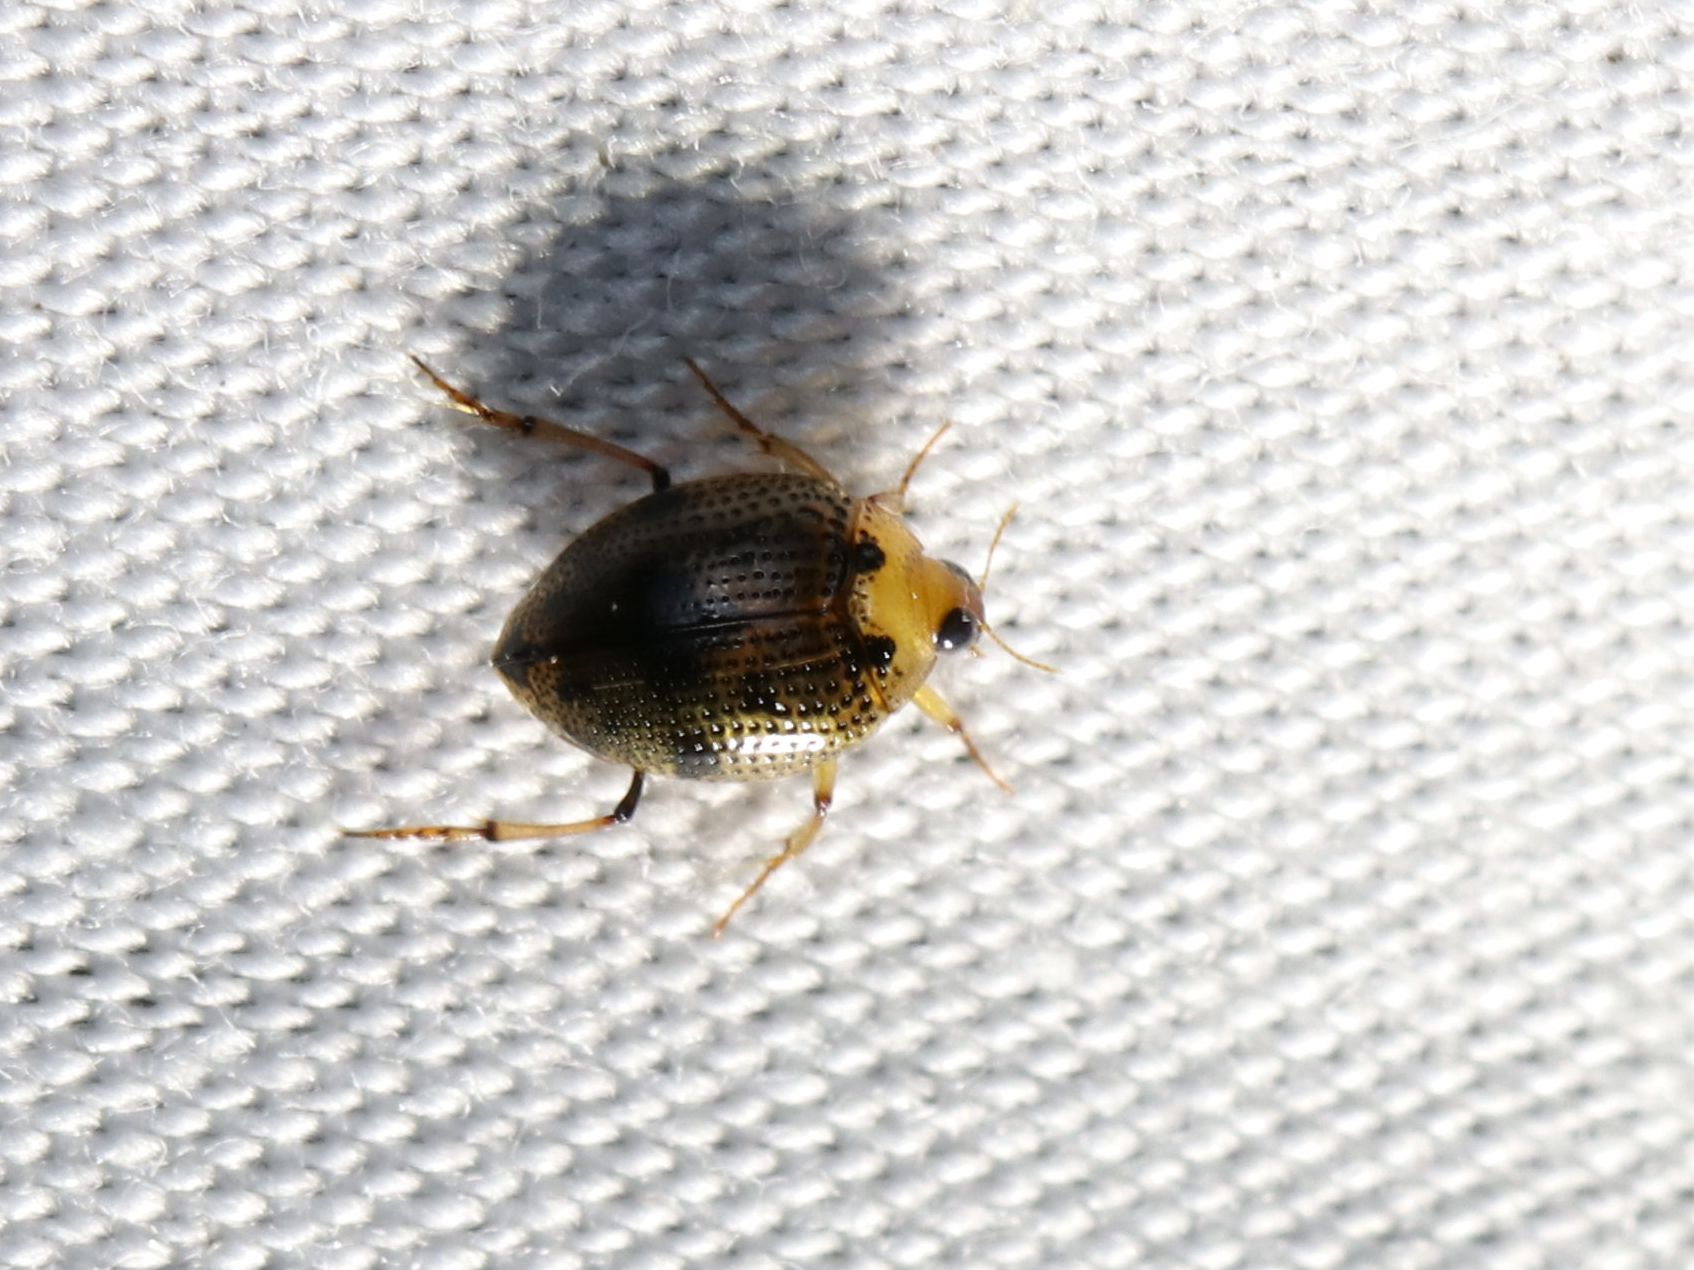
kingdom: Animalia
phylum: Arthropoda
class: Insecta
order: Coleoptera
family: Haliplidae
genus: Peltodytes
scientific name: Peltodytes
